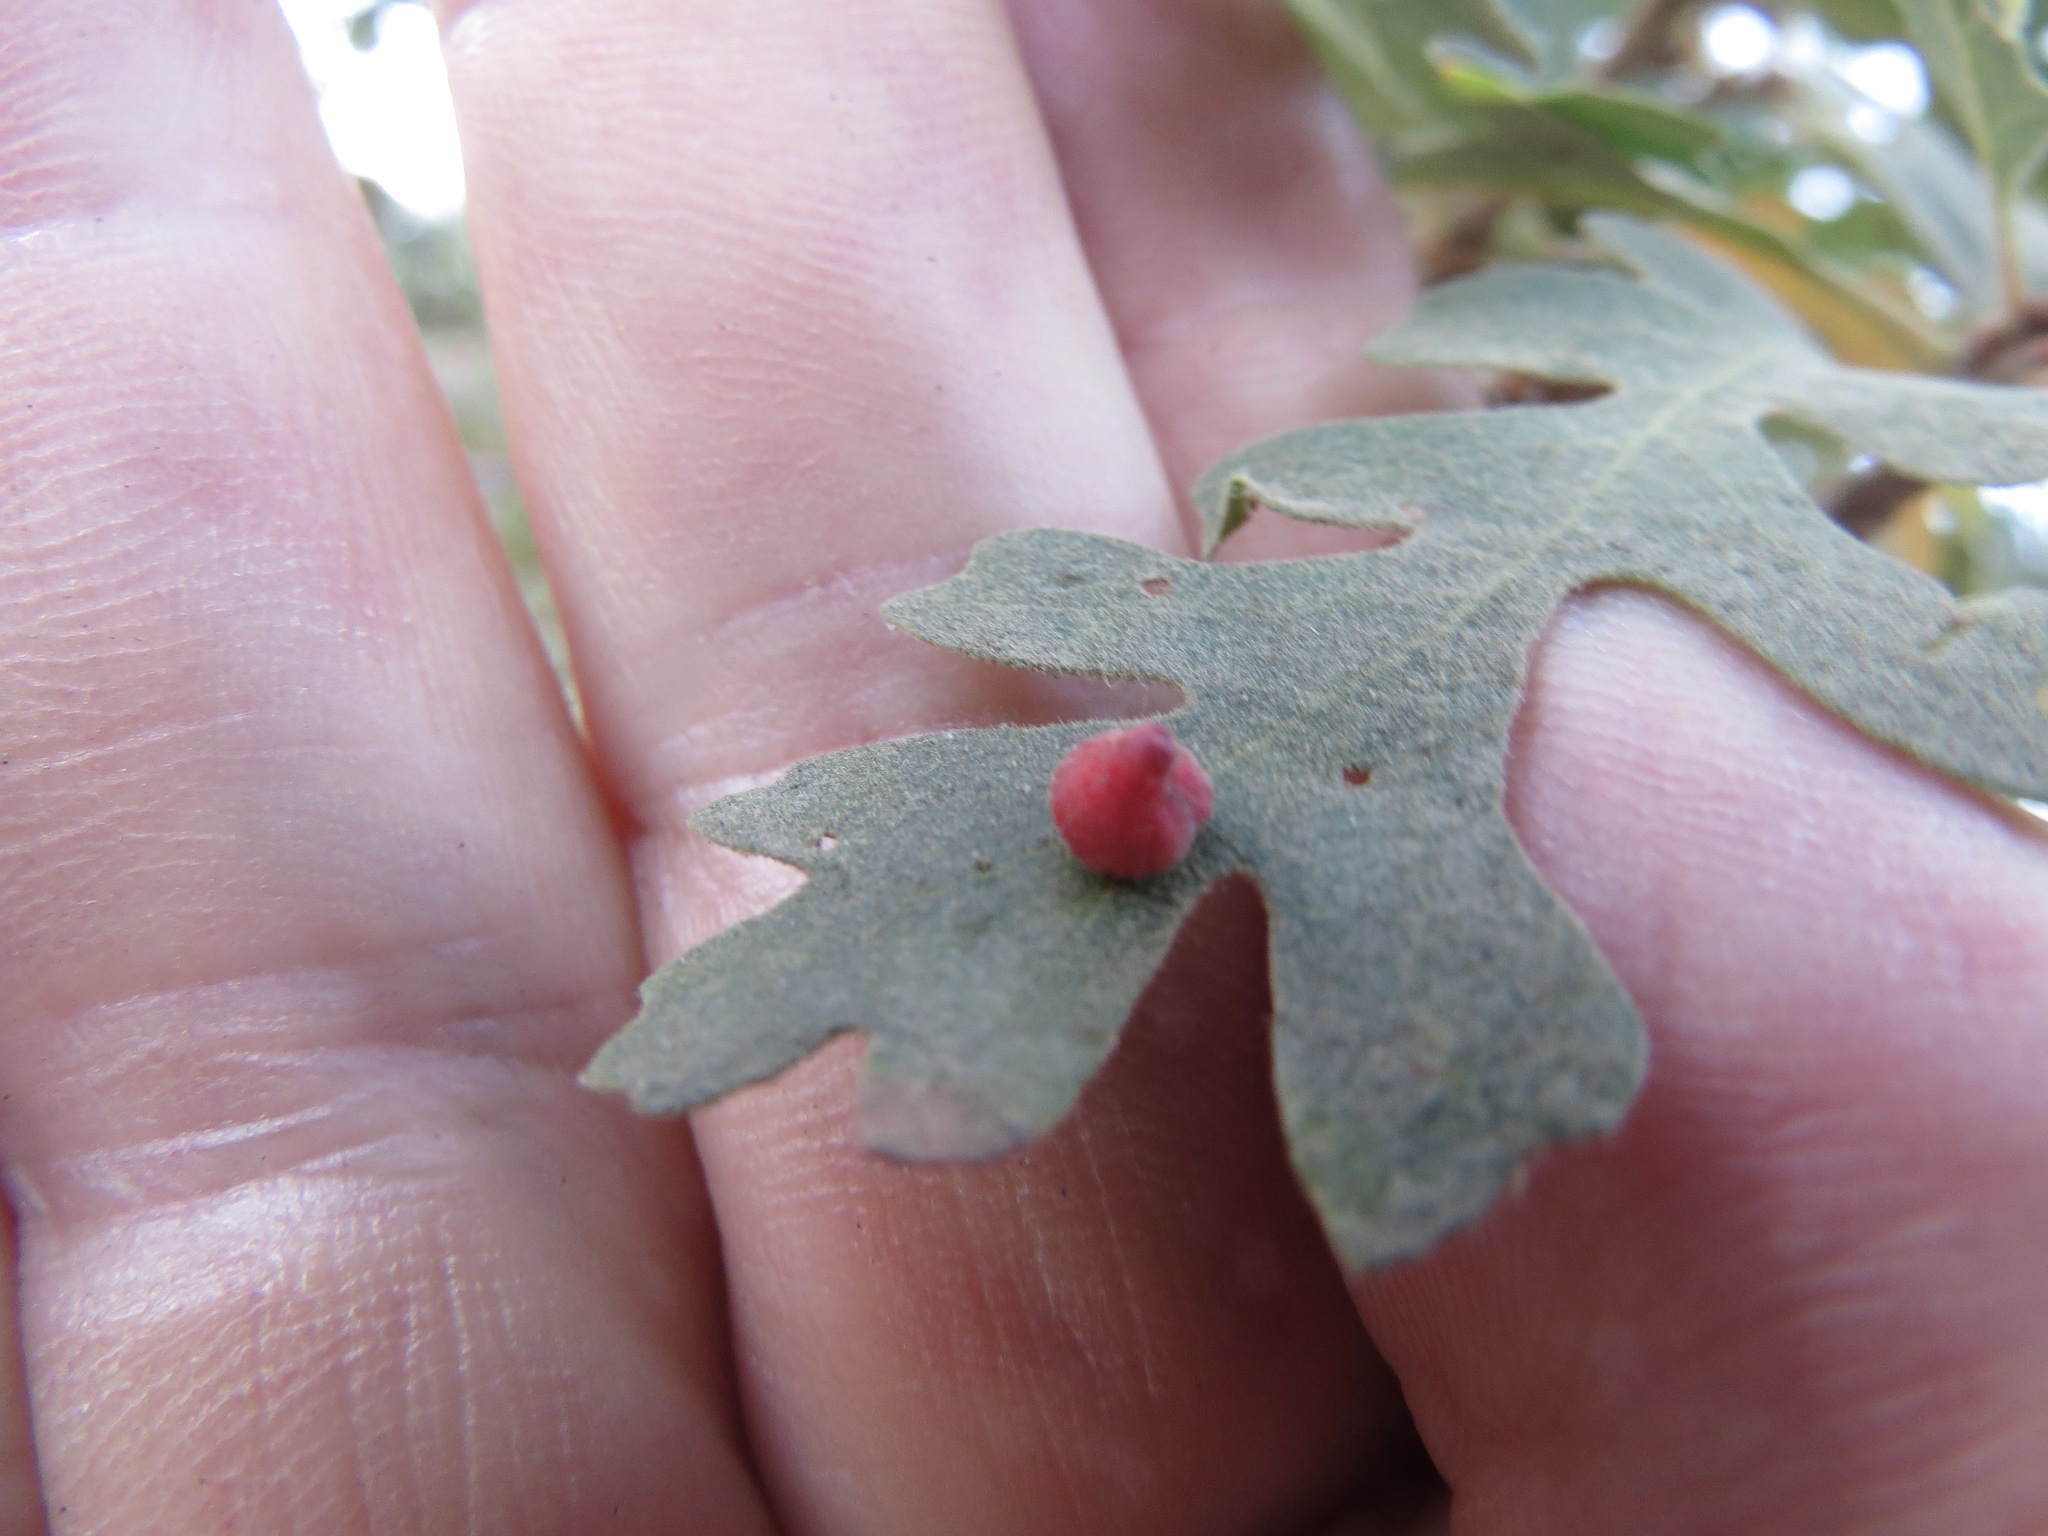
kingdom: Animalia
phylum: Arthropoda
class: Insecta
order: Hymenoptera
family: Cynipidae
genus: Andricus
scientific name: Andricus
